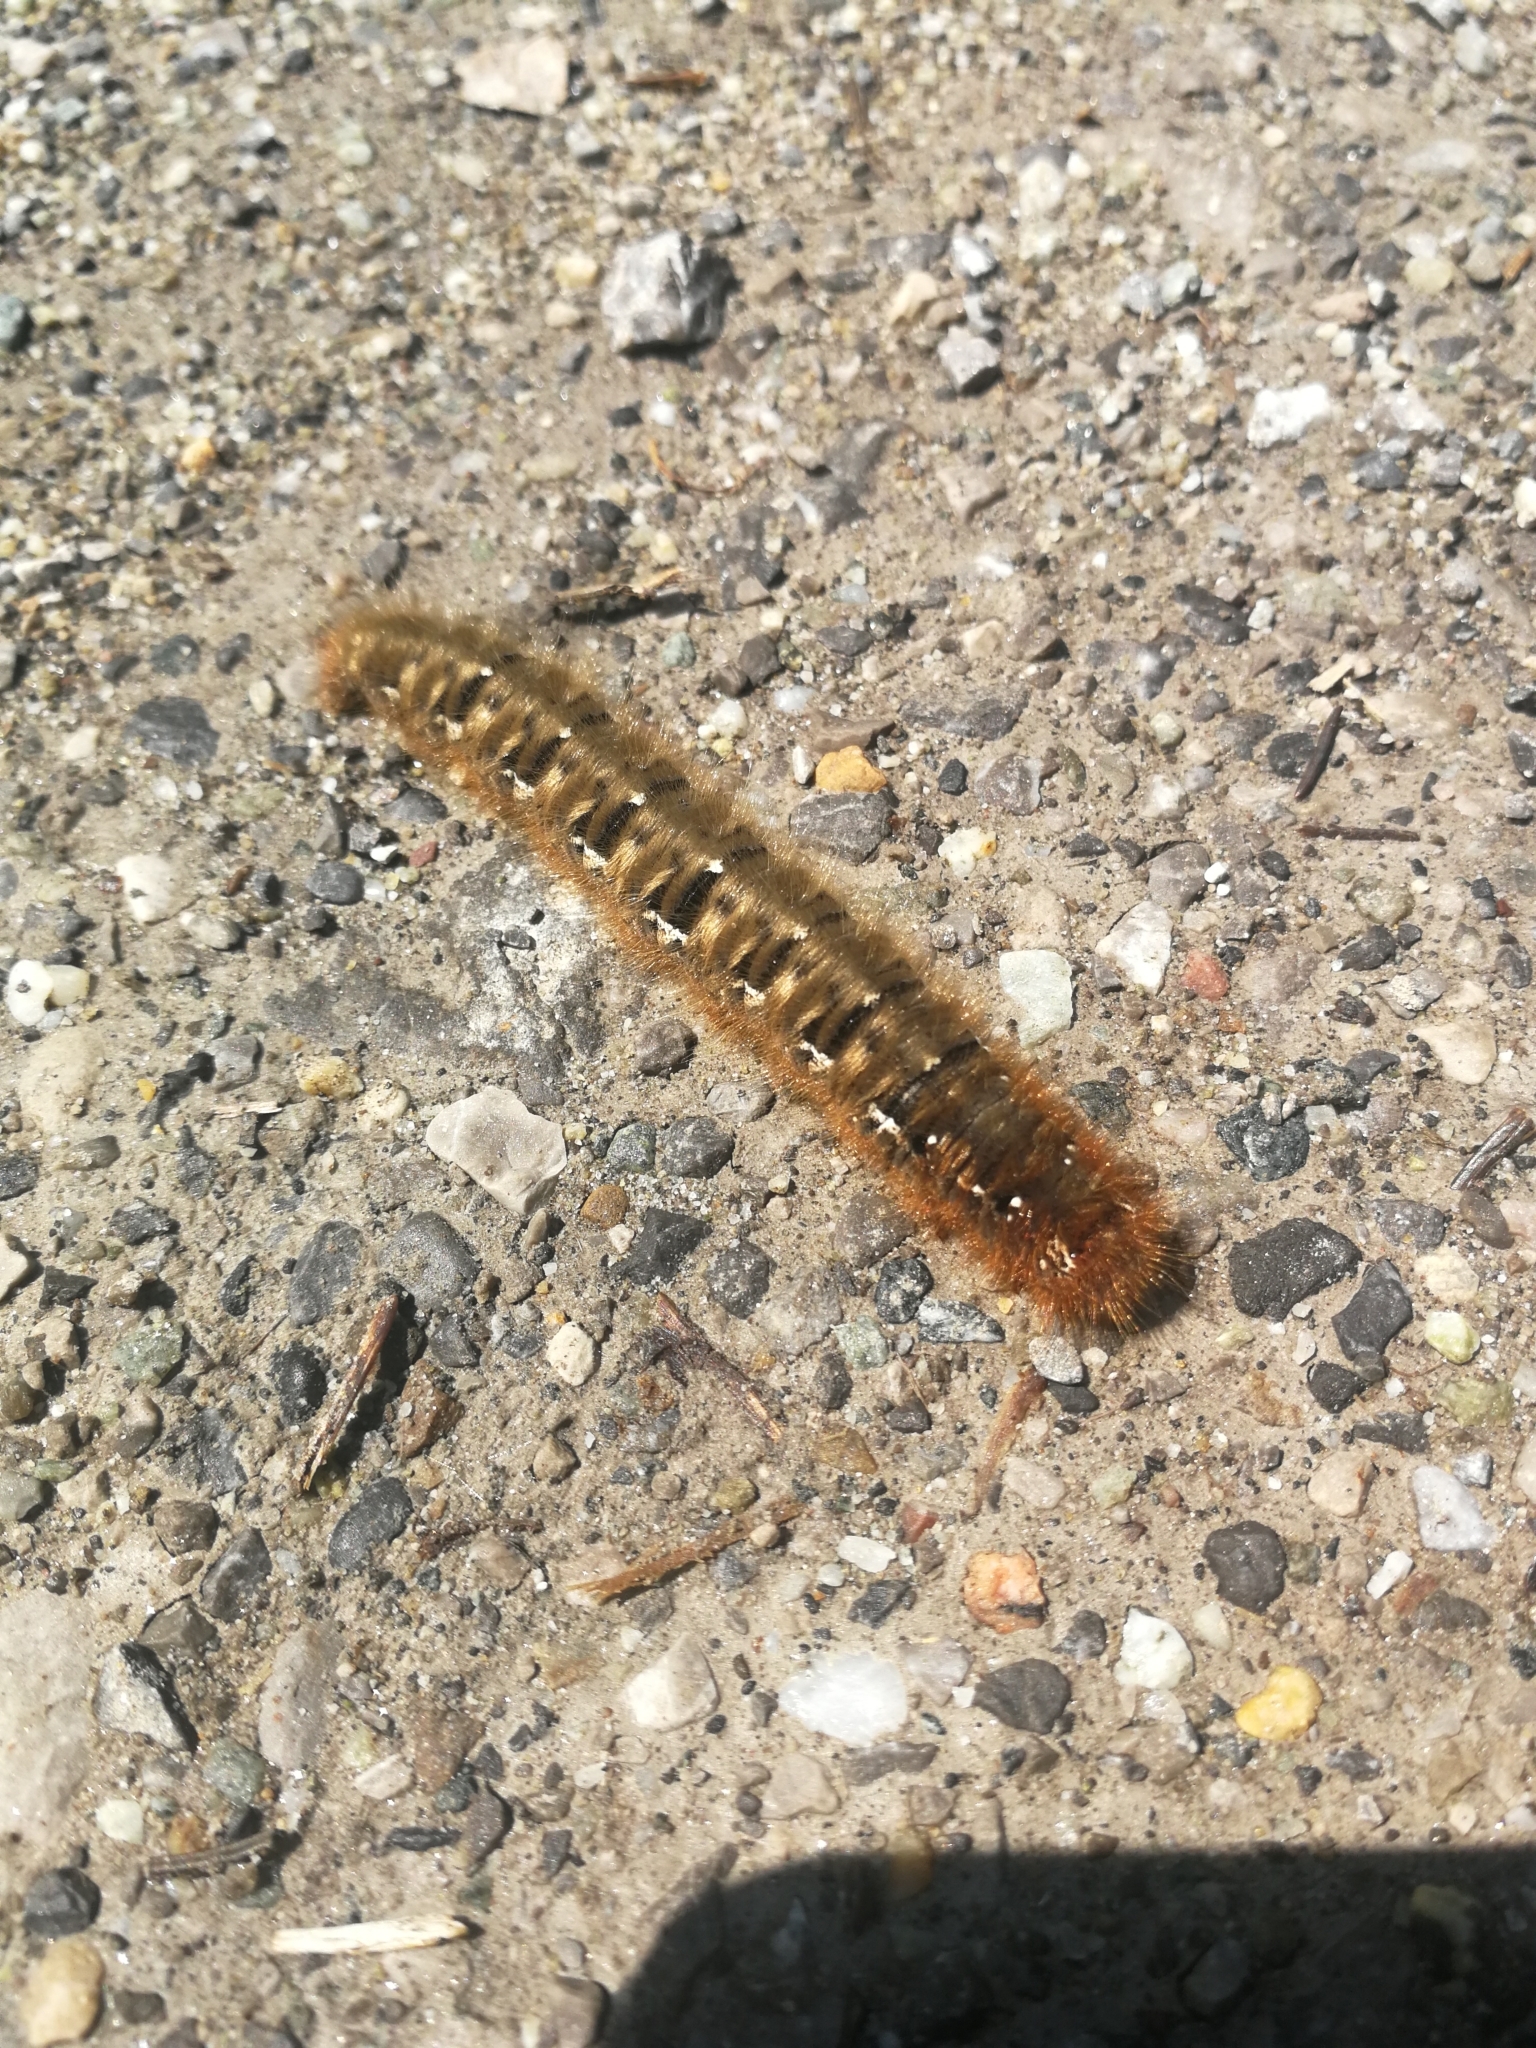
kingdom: Animalia
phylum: Arthropoda
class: Insecta
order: Lepidoptera
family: Lasiocampidae
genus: Lasiocampa
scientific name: Lasiocampa quercus
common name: Oak eggar
